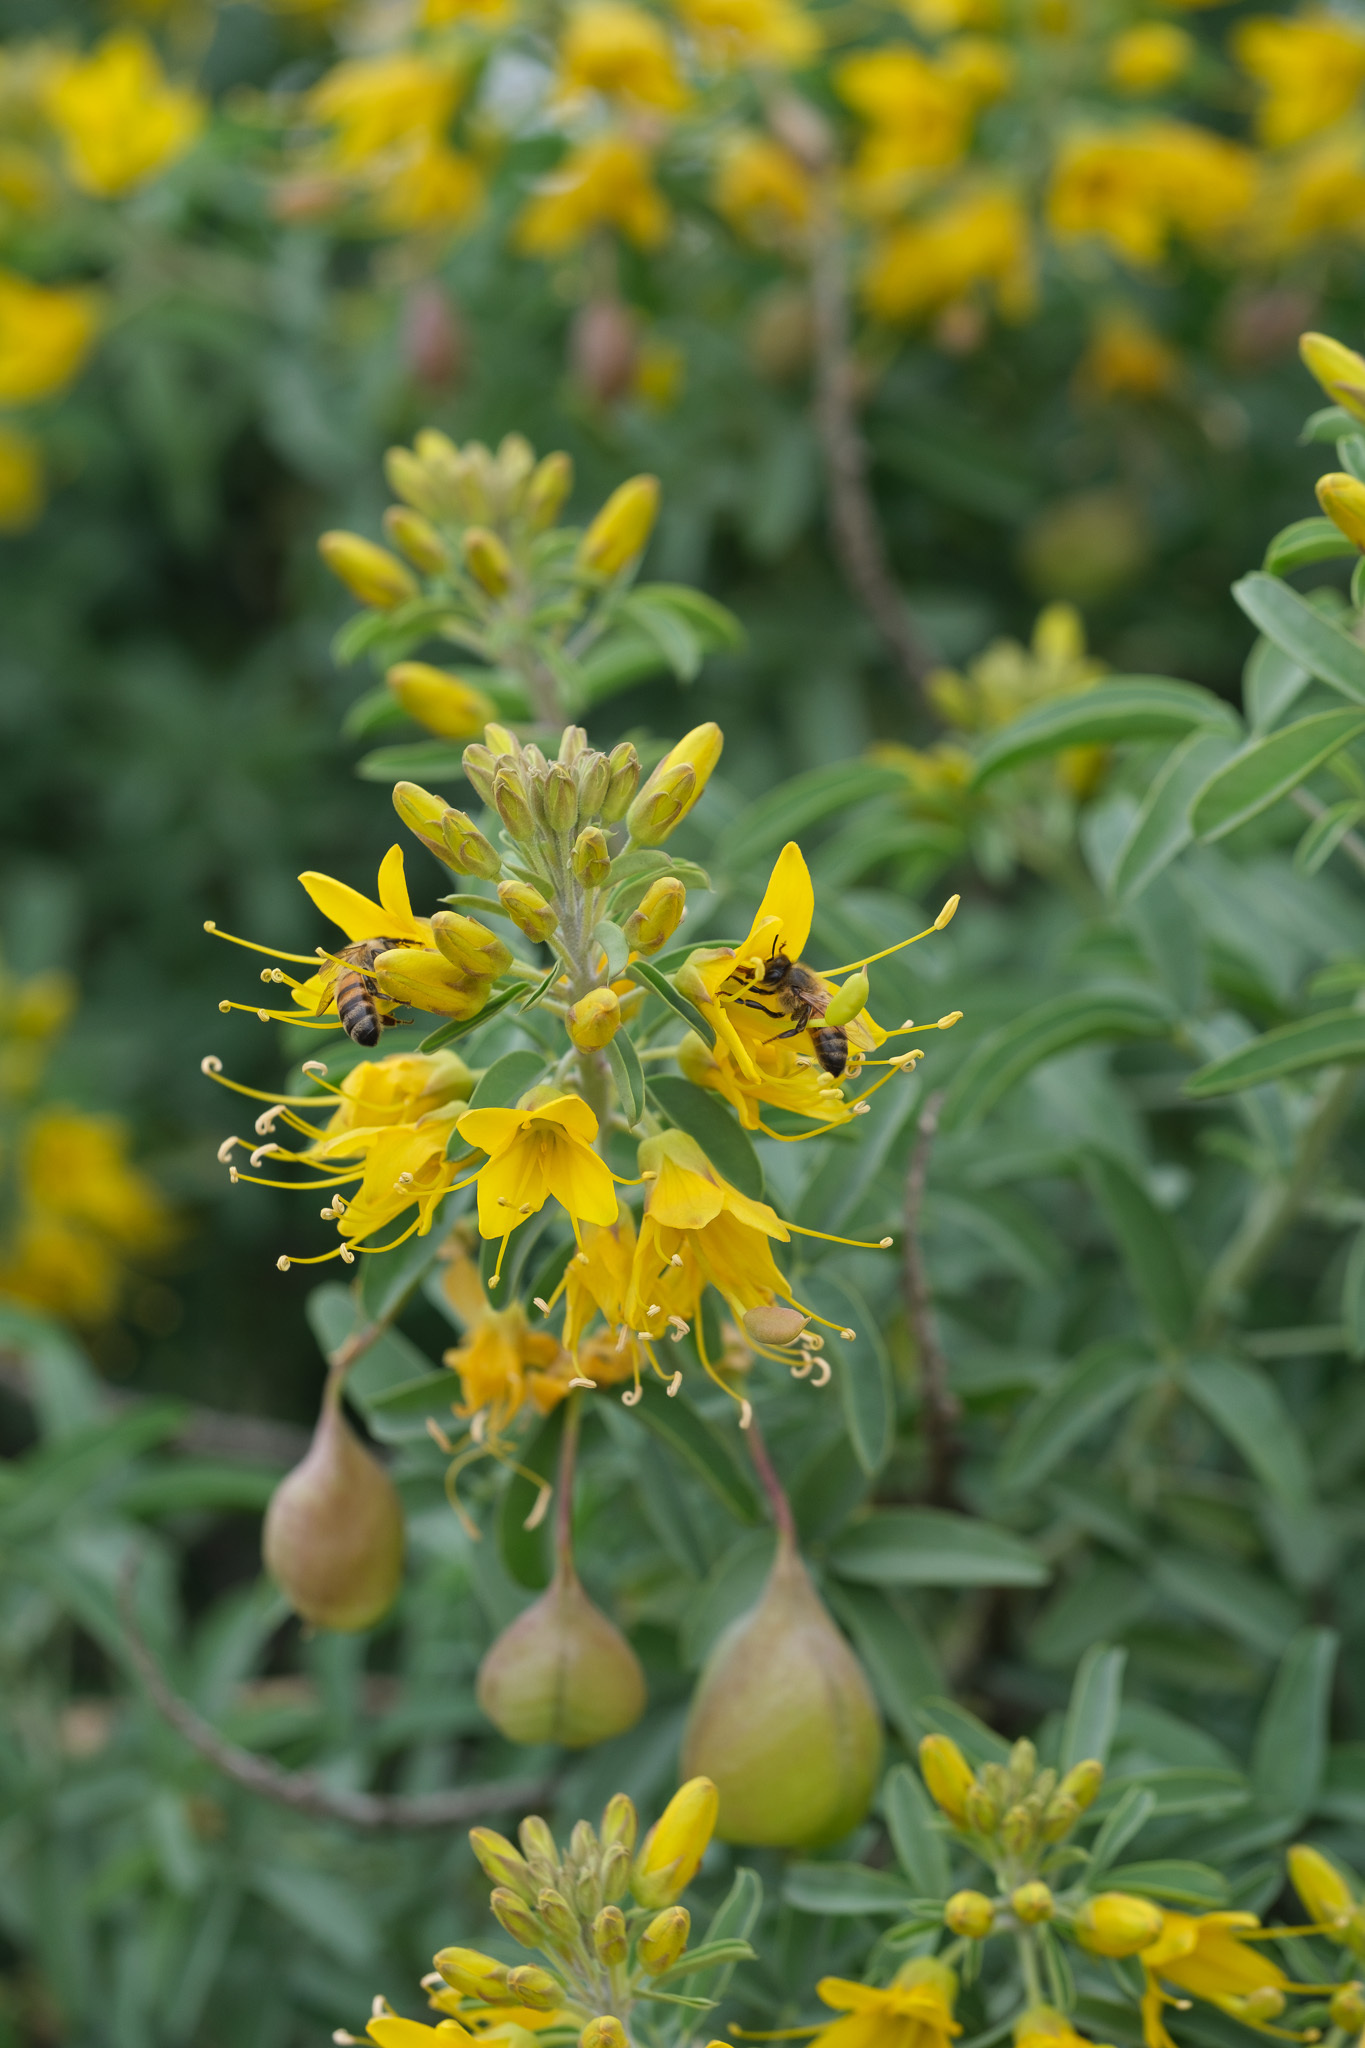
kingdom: Plantae
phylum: Tracheophyta
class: Magnoliopsida
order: Brassicales
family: Cleomaceae
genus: Cleomella
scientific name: Cleomella arborea
